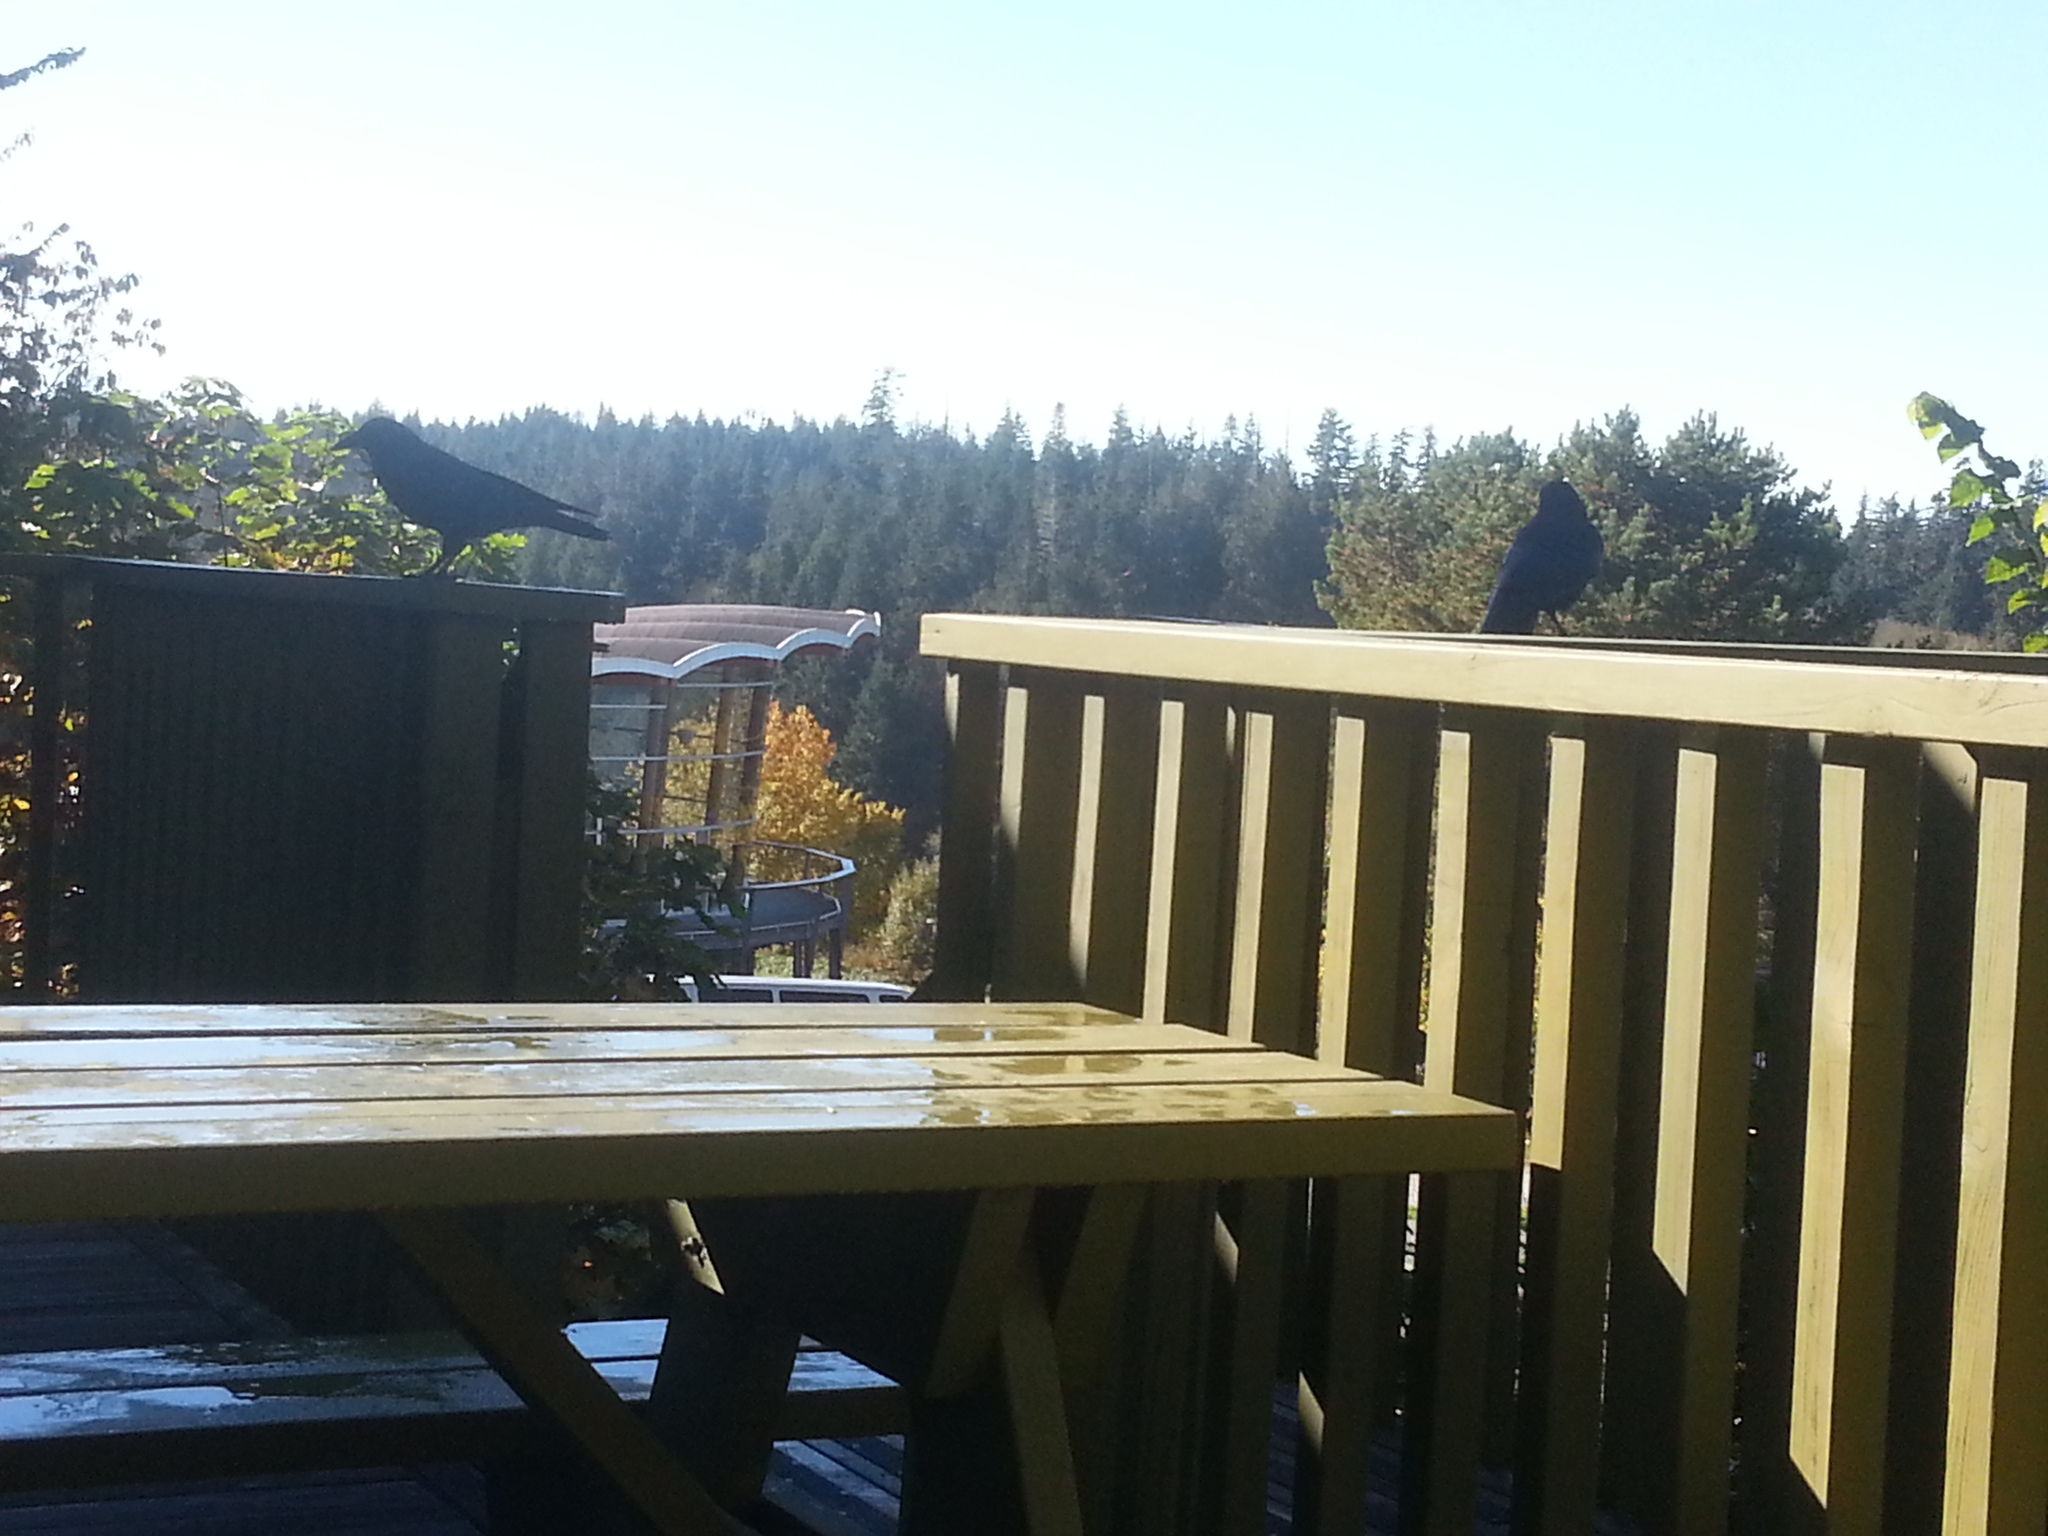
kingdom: Animalia
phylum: Chordata
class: Aves
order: Passeriformes
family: Corvidae
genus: Corvus
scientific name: Corvus brachyrhynchos
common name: American crow
